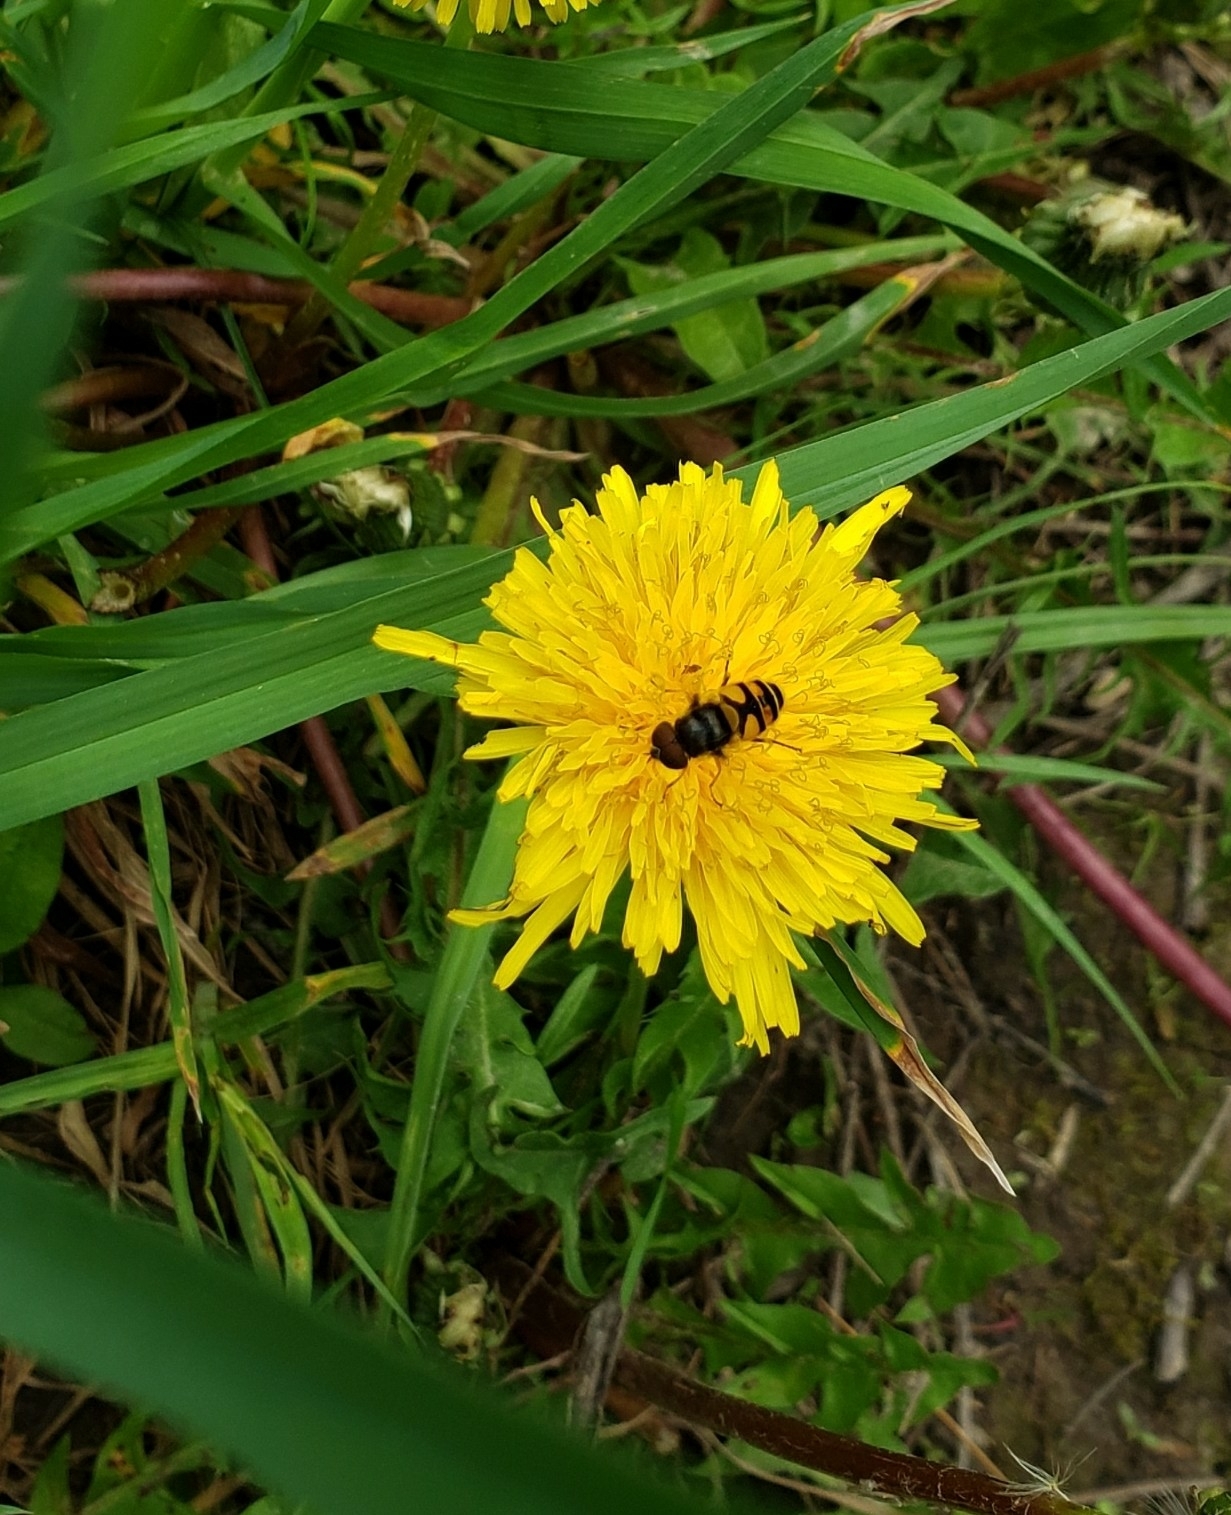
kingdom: Animalia
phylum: Arthropoda
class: Insecta
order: Diptera
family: Syrphidae
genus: Eristalis
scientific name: Eristalis transversa
